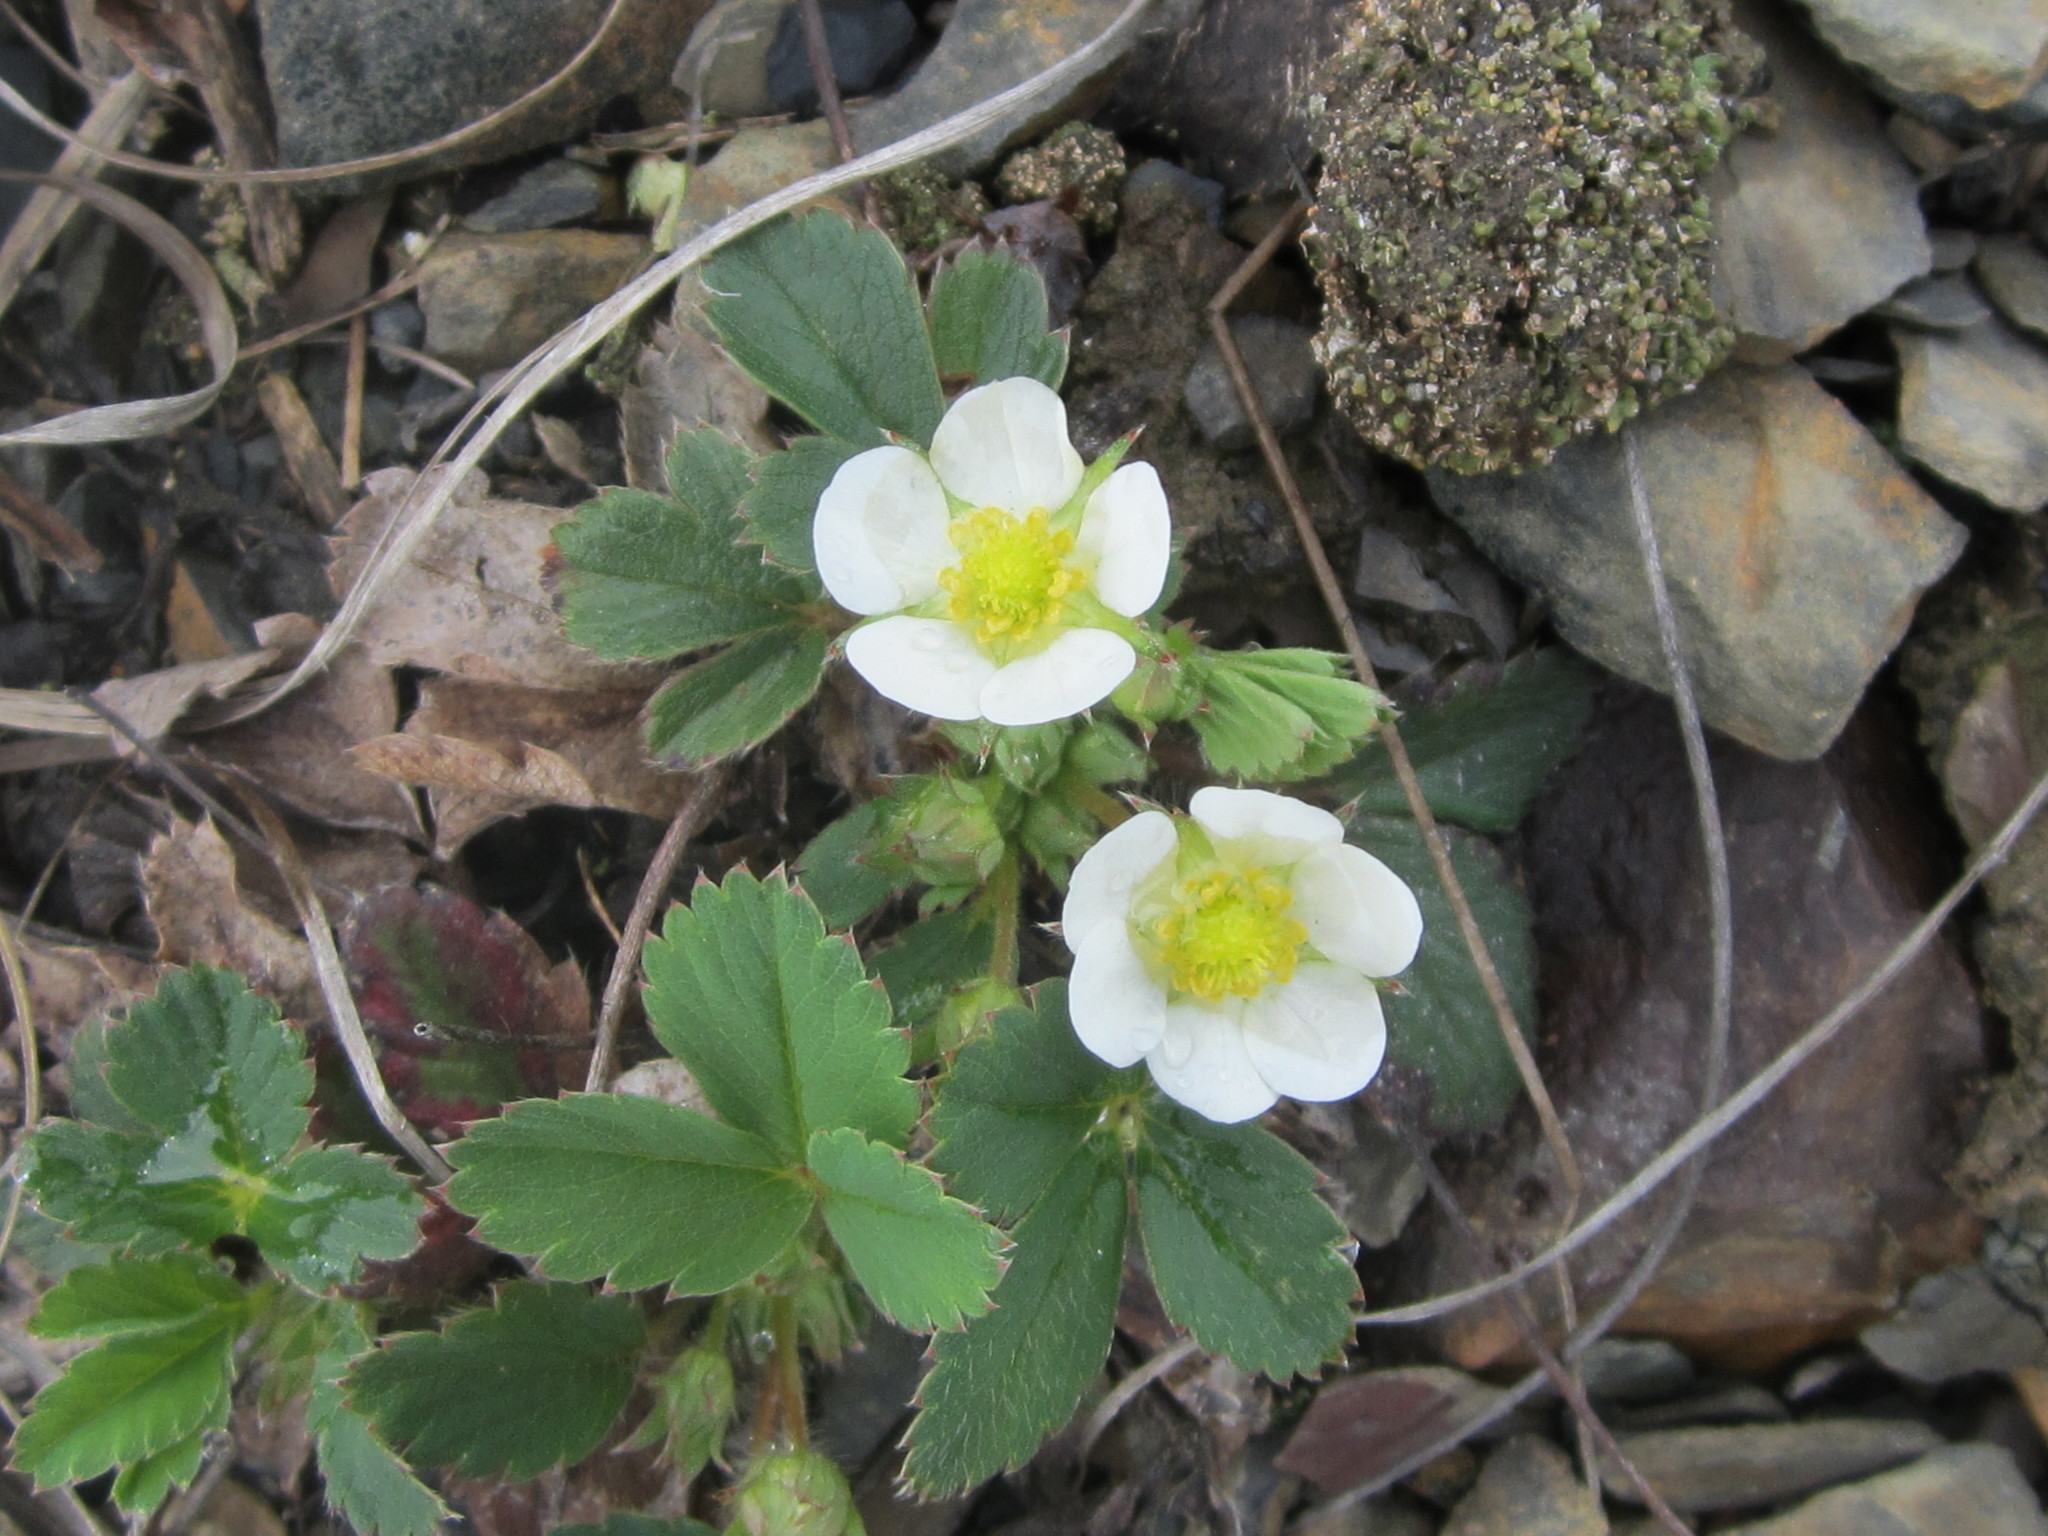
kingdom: Plantae
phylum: Tracheophyta
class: Magnoliopsida
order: Rosales
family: Rosaceae
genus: Fragaria
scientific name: Fragaria virginiana
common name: Thickleaved wild strawberry
